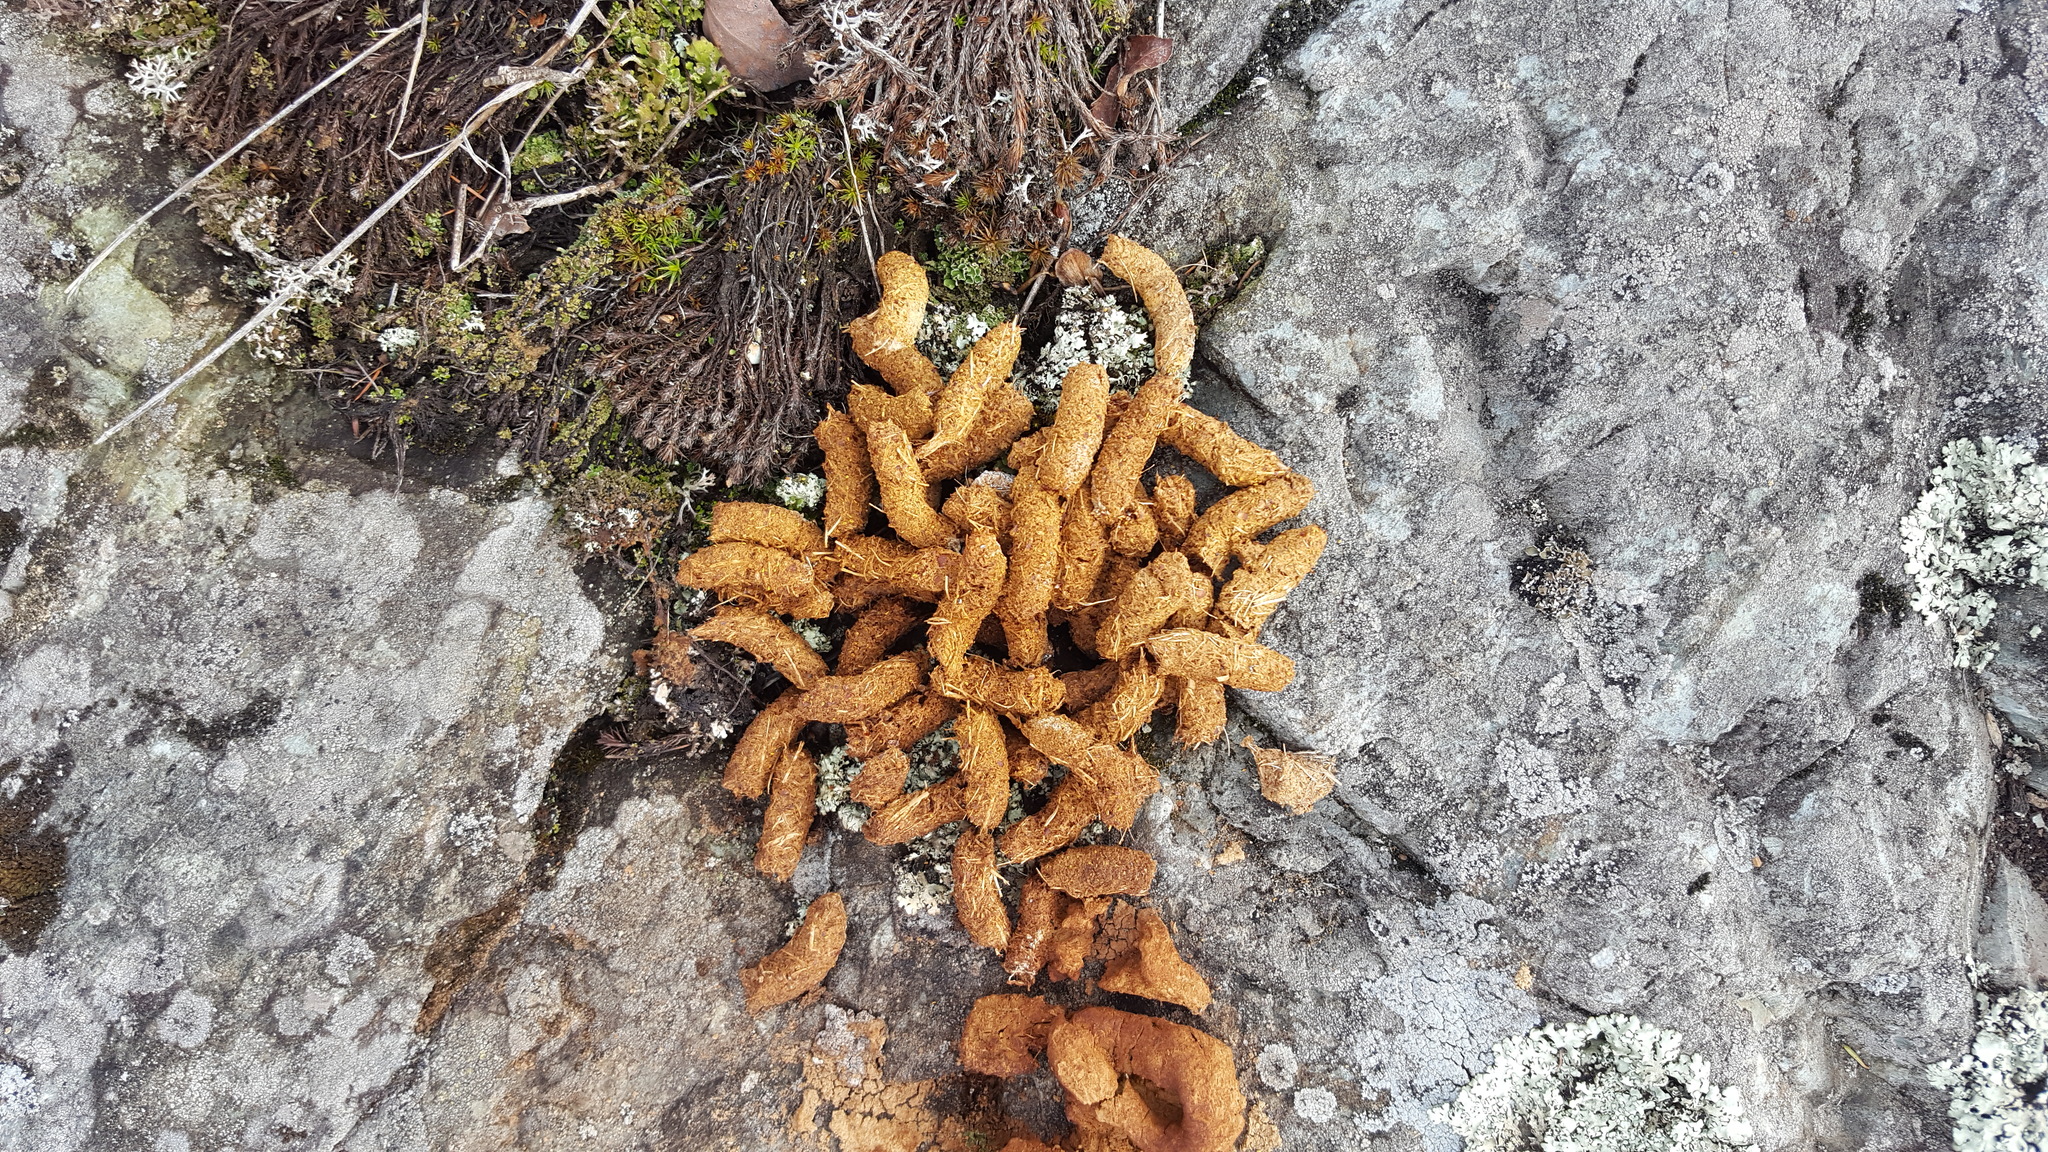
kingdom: Animalia
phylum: Chordata
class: Aves
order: Galliformes
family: Phasianidae
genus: Bonasa
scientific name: Bonasa umbellus
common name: Ruffed grouse
